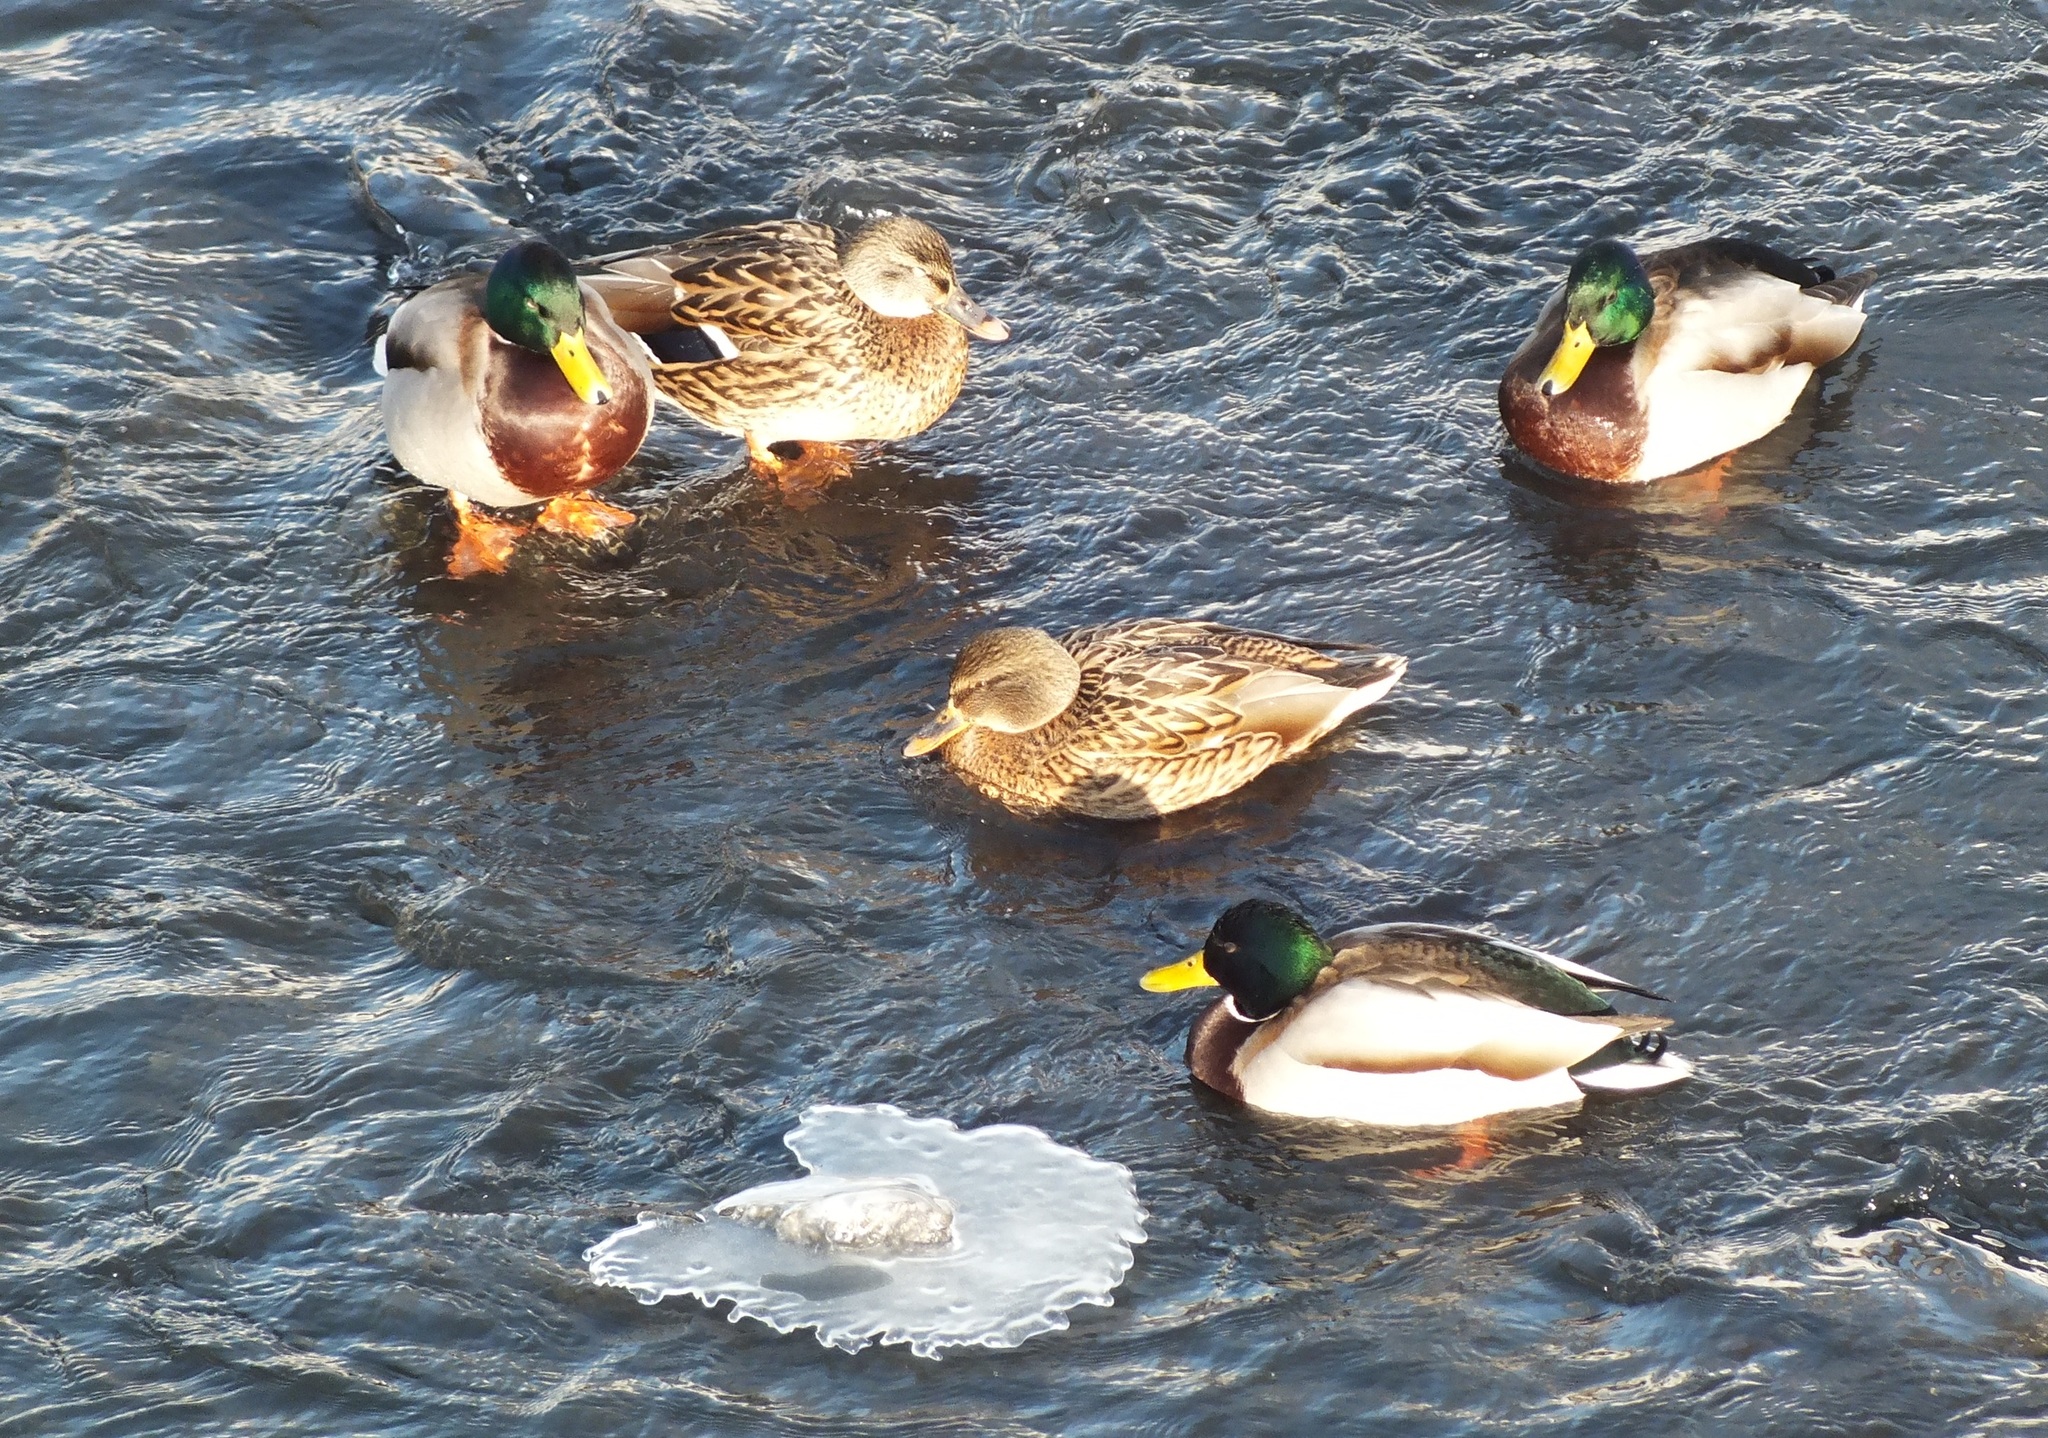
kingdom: Animalia
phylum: Chordata
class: Aves
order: Anseriformes
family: Anatidae
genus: Anas
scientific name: Anas platyrhynchos
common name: Mallard
